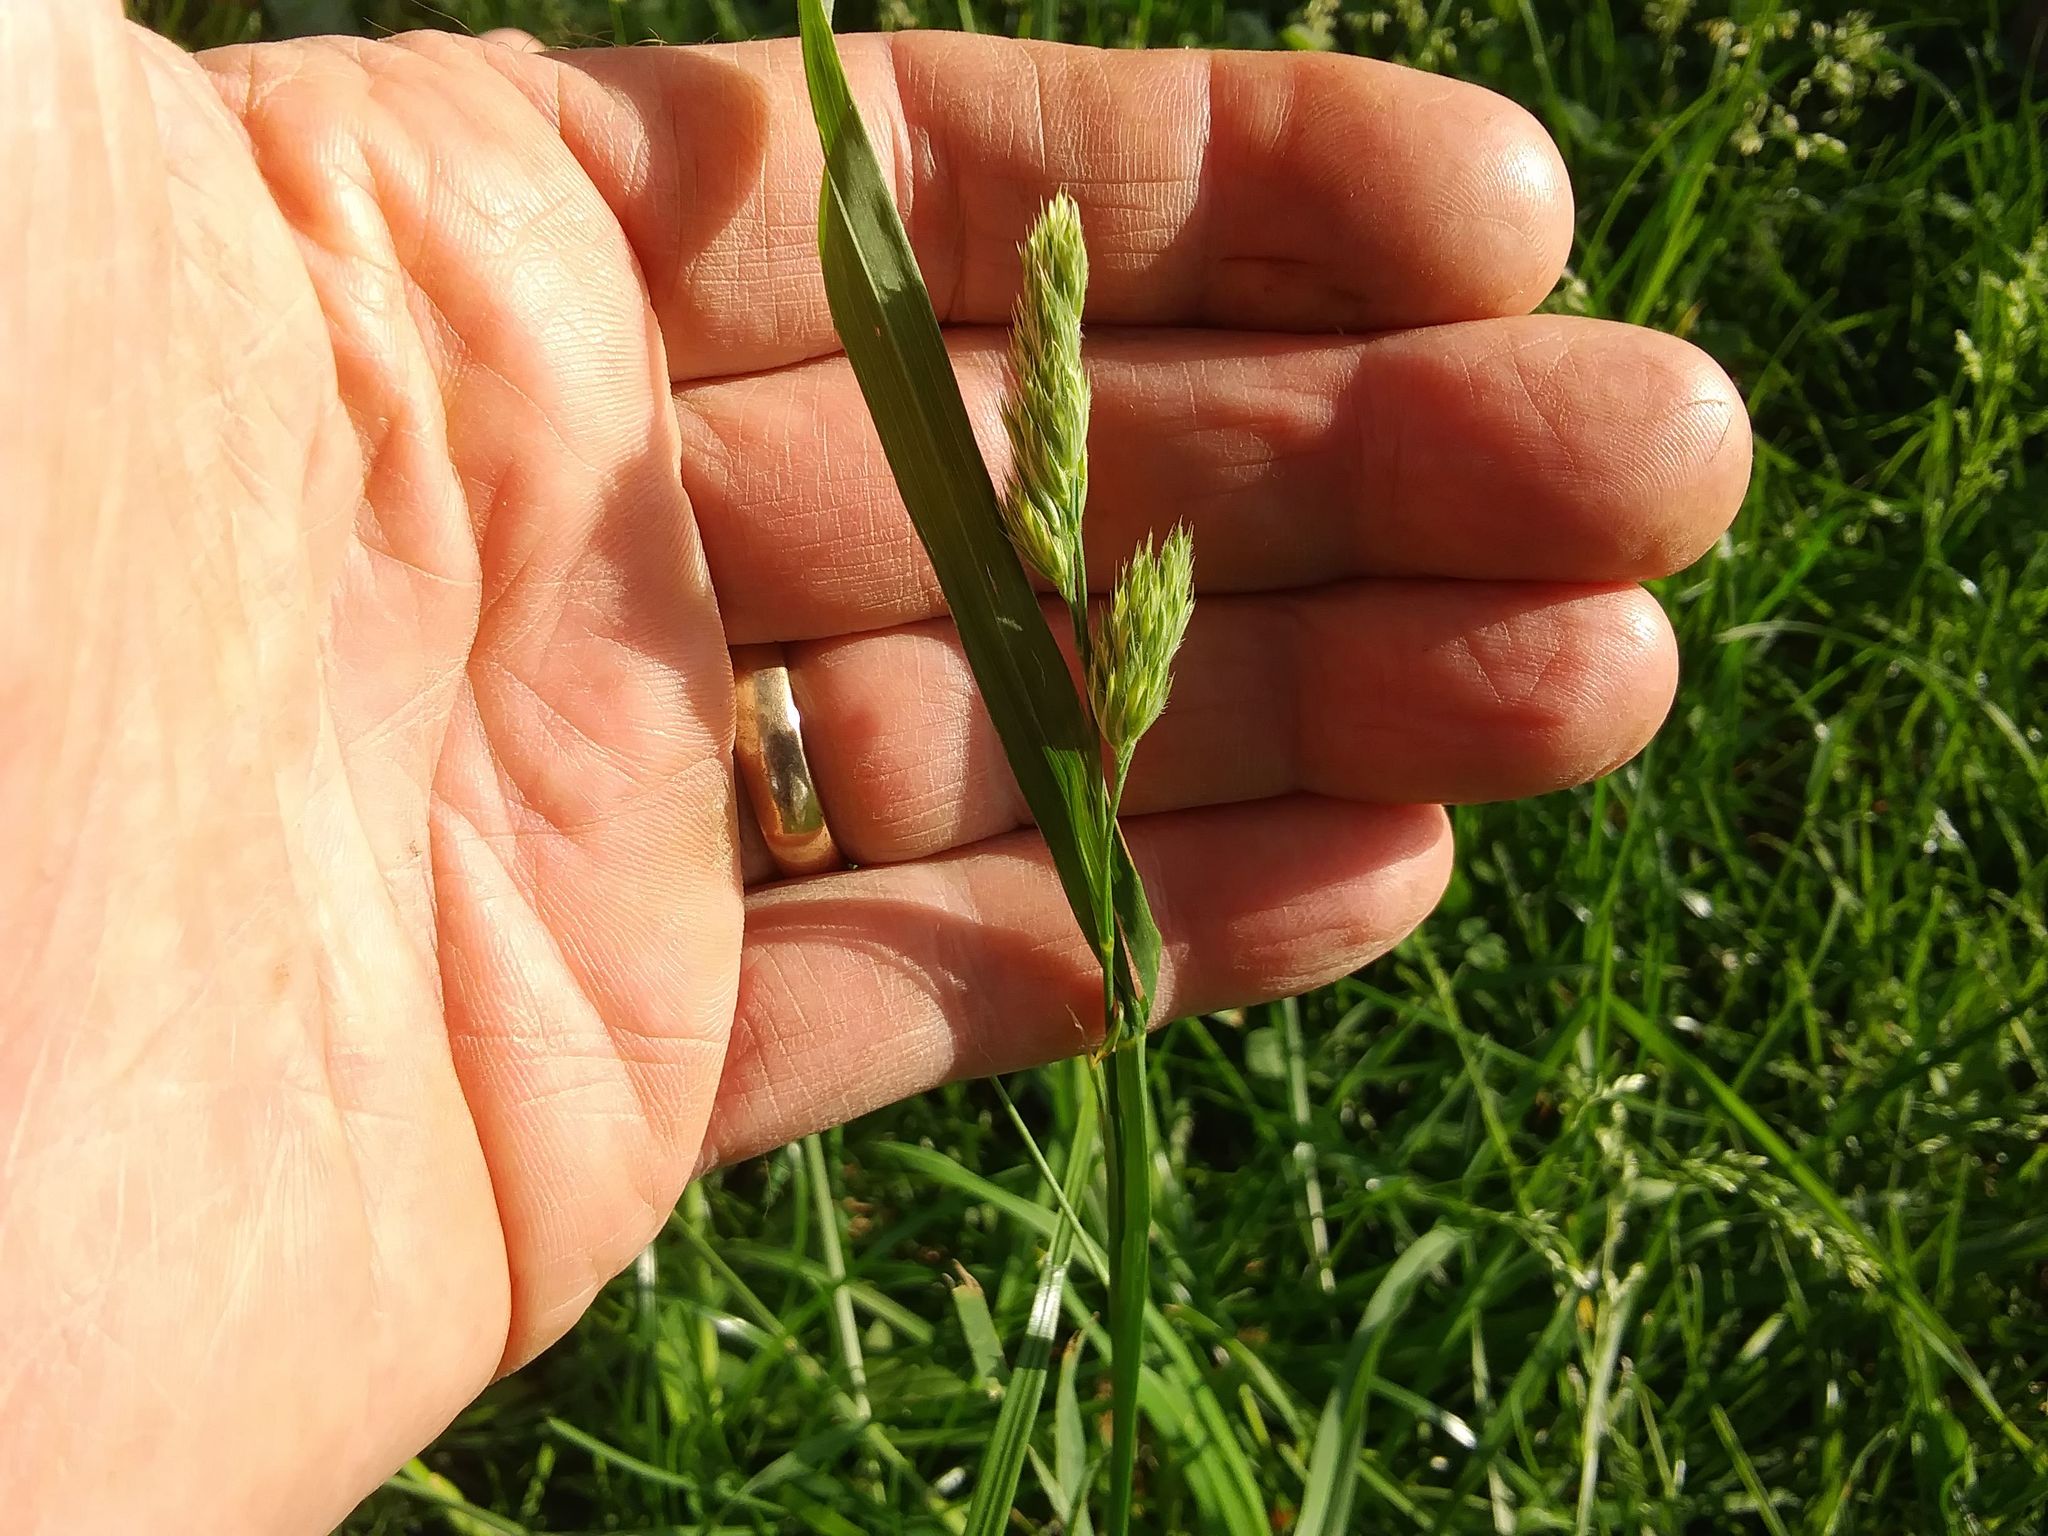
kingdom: Plantae
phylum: Tracheophyta
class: Liliopsida
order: Poales
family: Poaceae
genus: Dactylis
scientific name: Dactylis glomerata
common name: Orchardgrass
